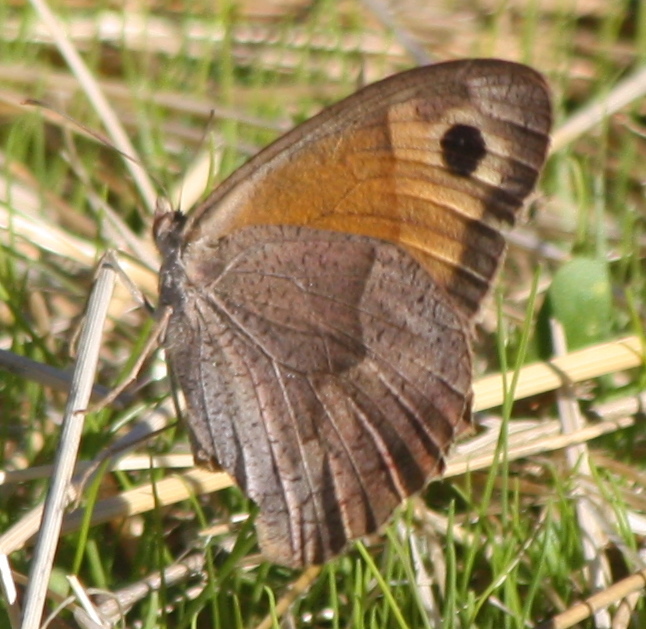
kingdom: Animalia
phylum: Arthropoda
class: Insecta
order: Lepidoptera
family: Nymphalidae
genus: Maniola
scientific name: Maniola jurtina
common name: Meadow brown
